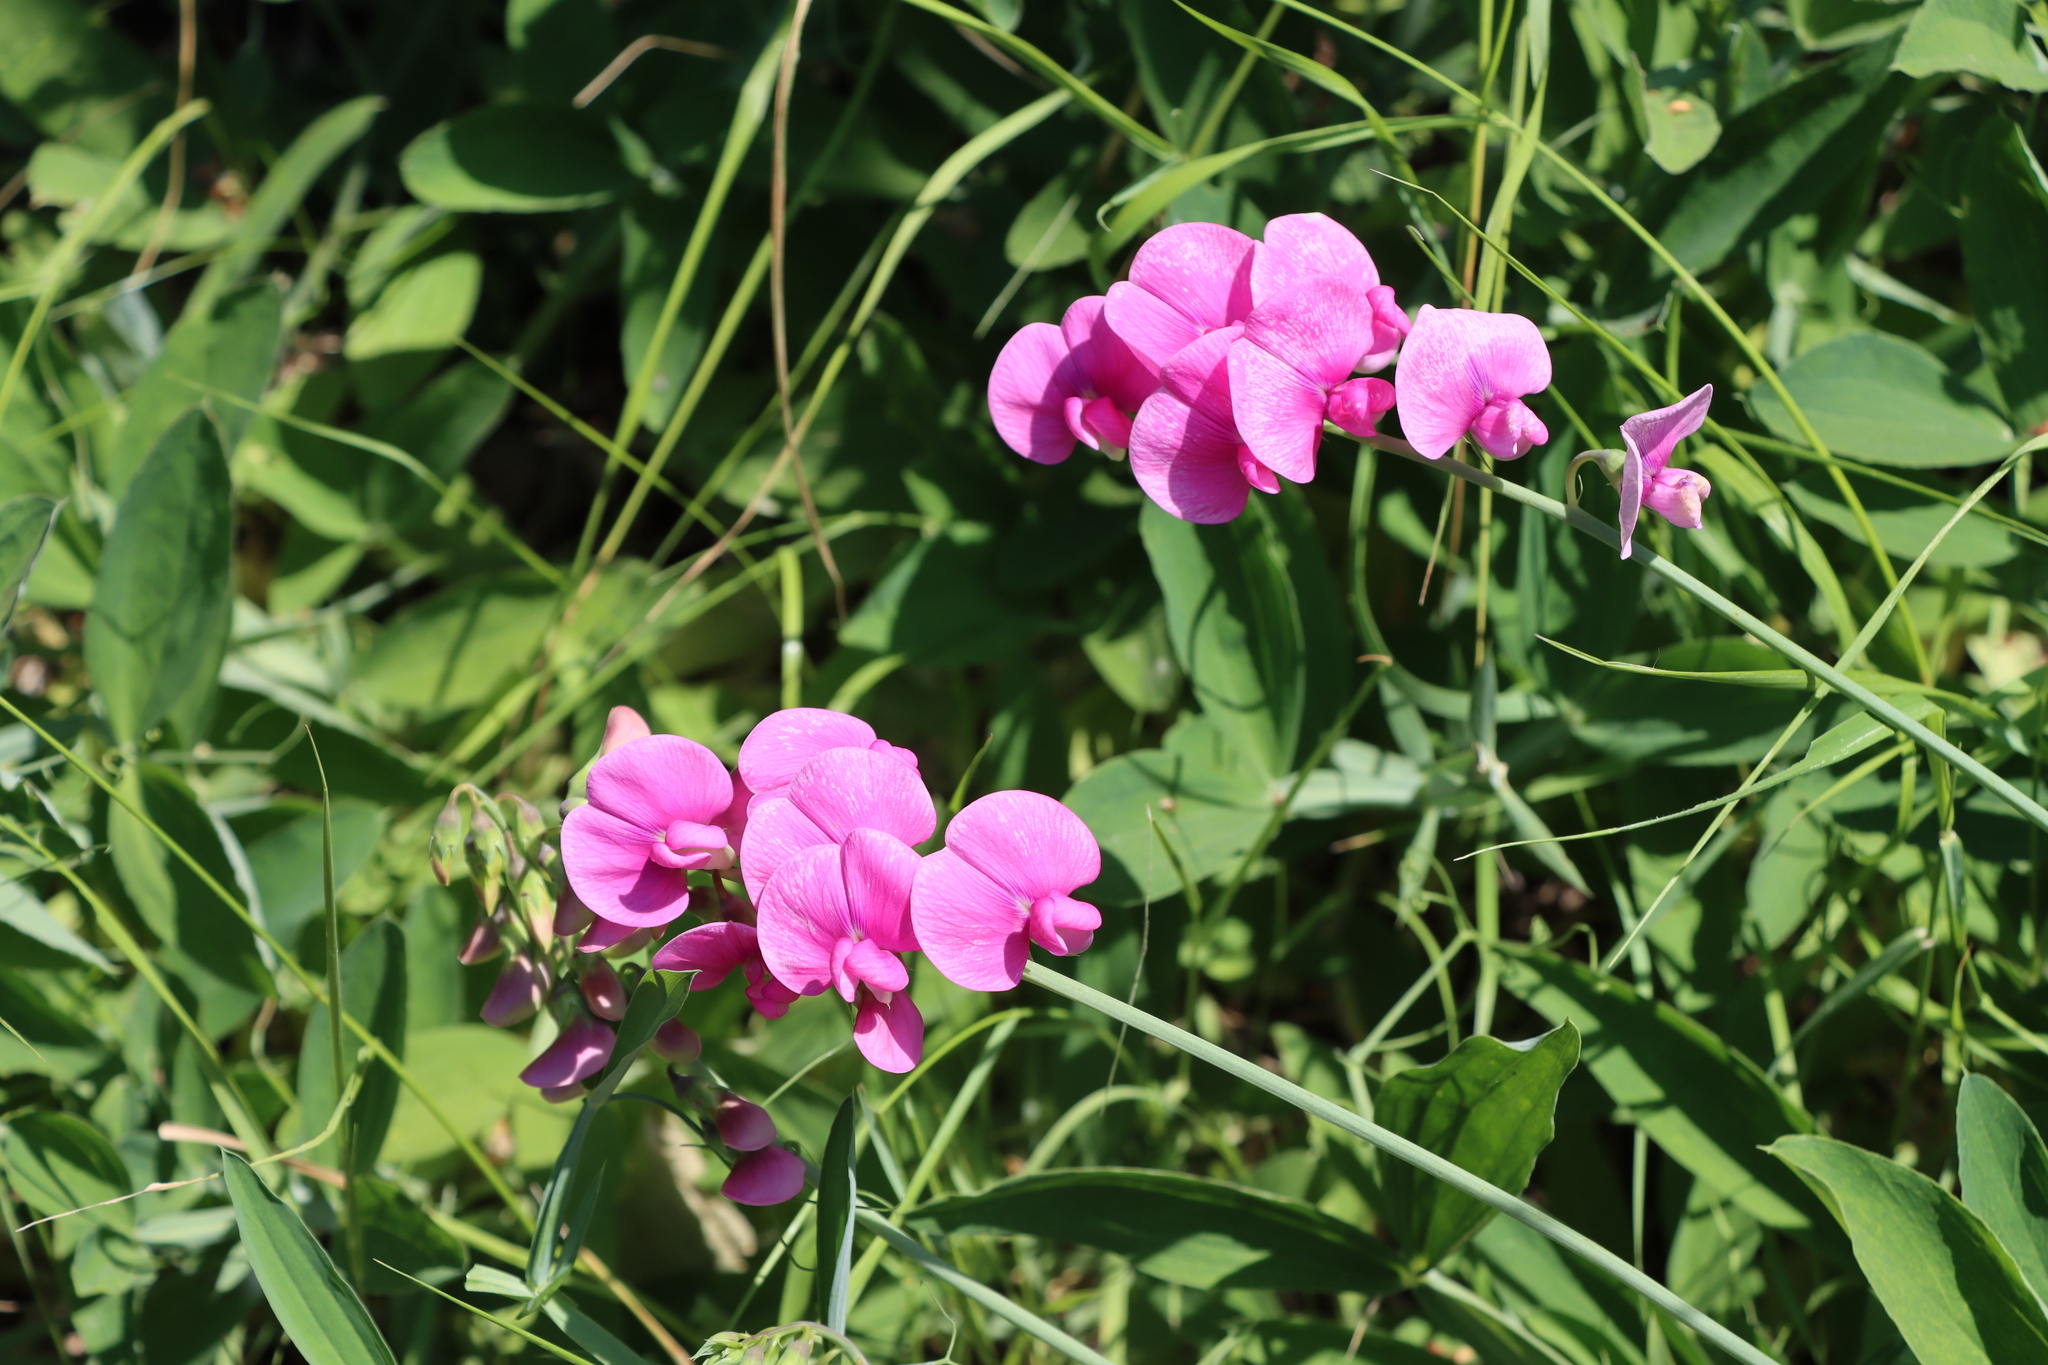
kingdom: Plantae
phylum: Tracheophyta
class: Magnoliopsida
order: Fabales
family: Fabaceae
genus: Lathyrus
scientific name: Lathyrus latifolius
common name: Perennial pea
